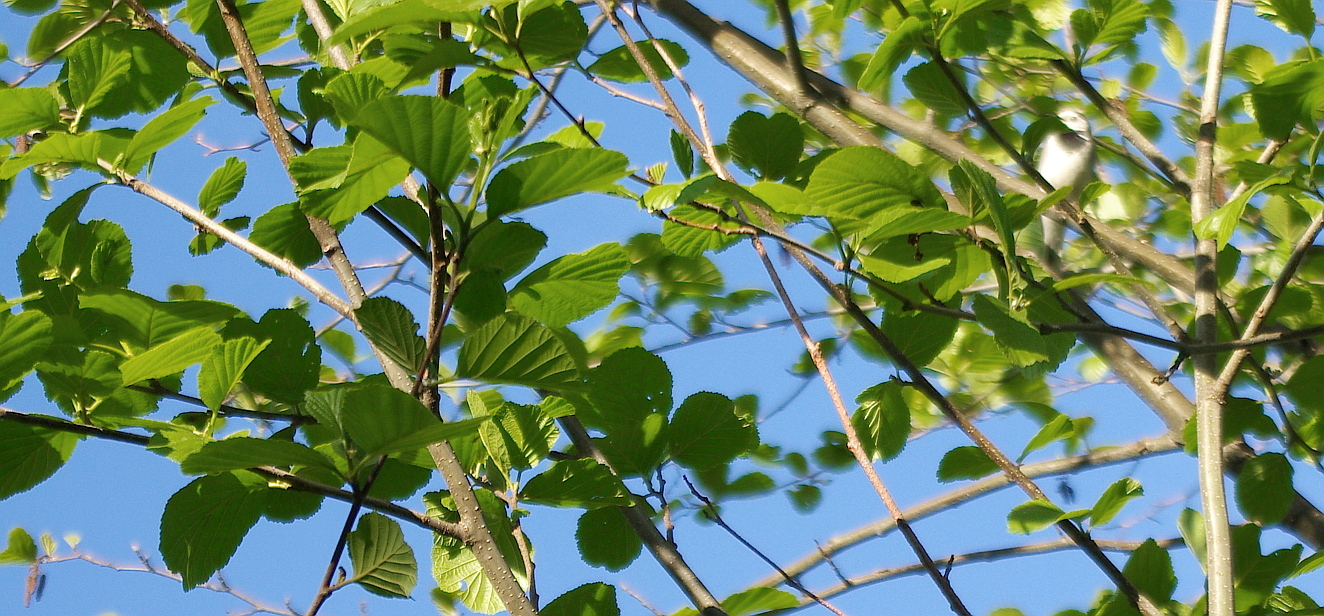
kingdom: Plantae
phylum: Tracheophyta
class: Magnoliopsida
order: Fagales
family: Betulaceae
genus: Alnus
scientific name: Alnus incana
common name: Grey alder
